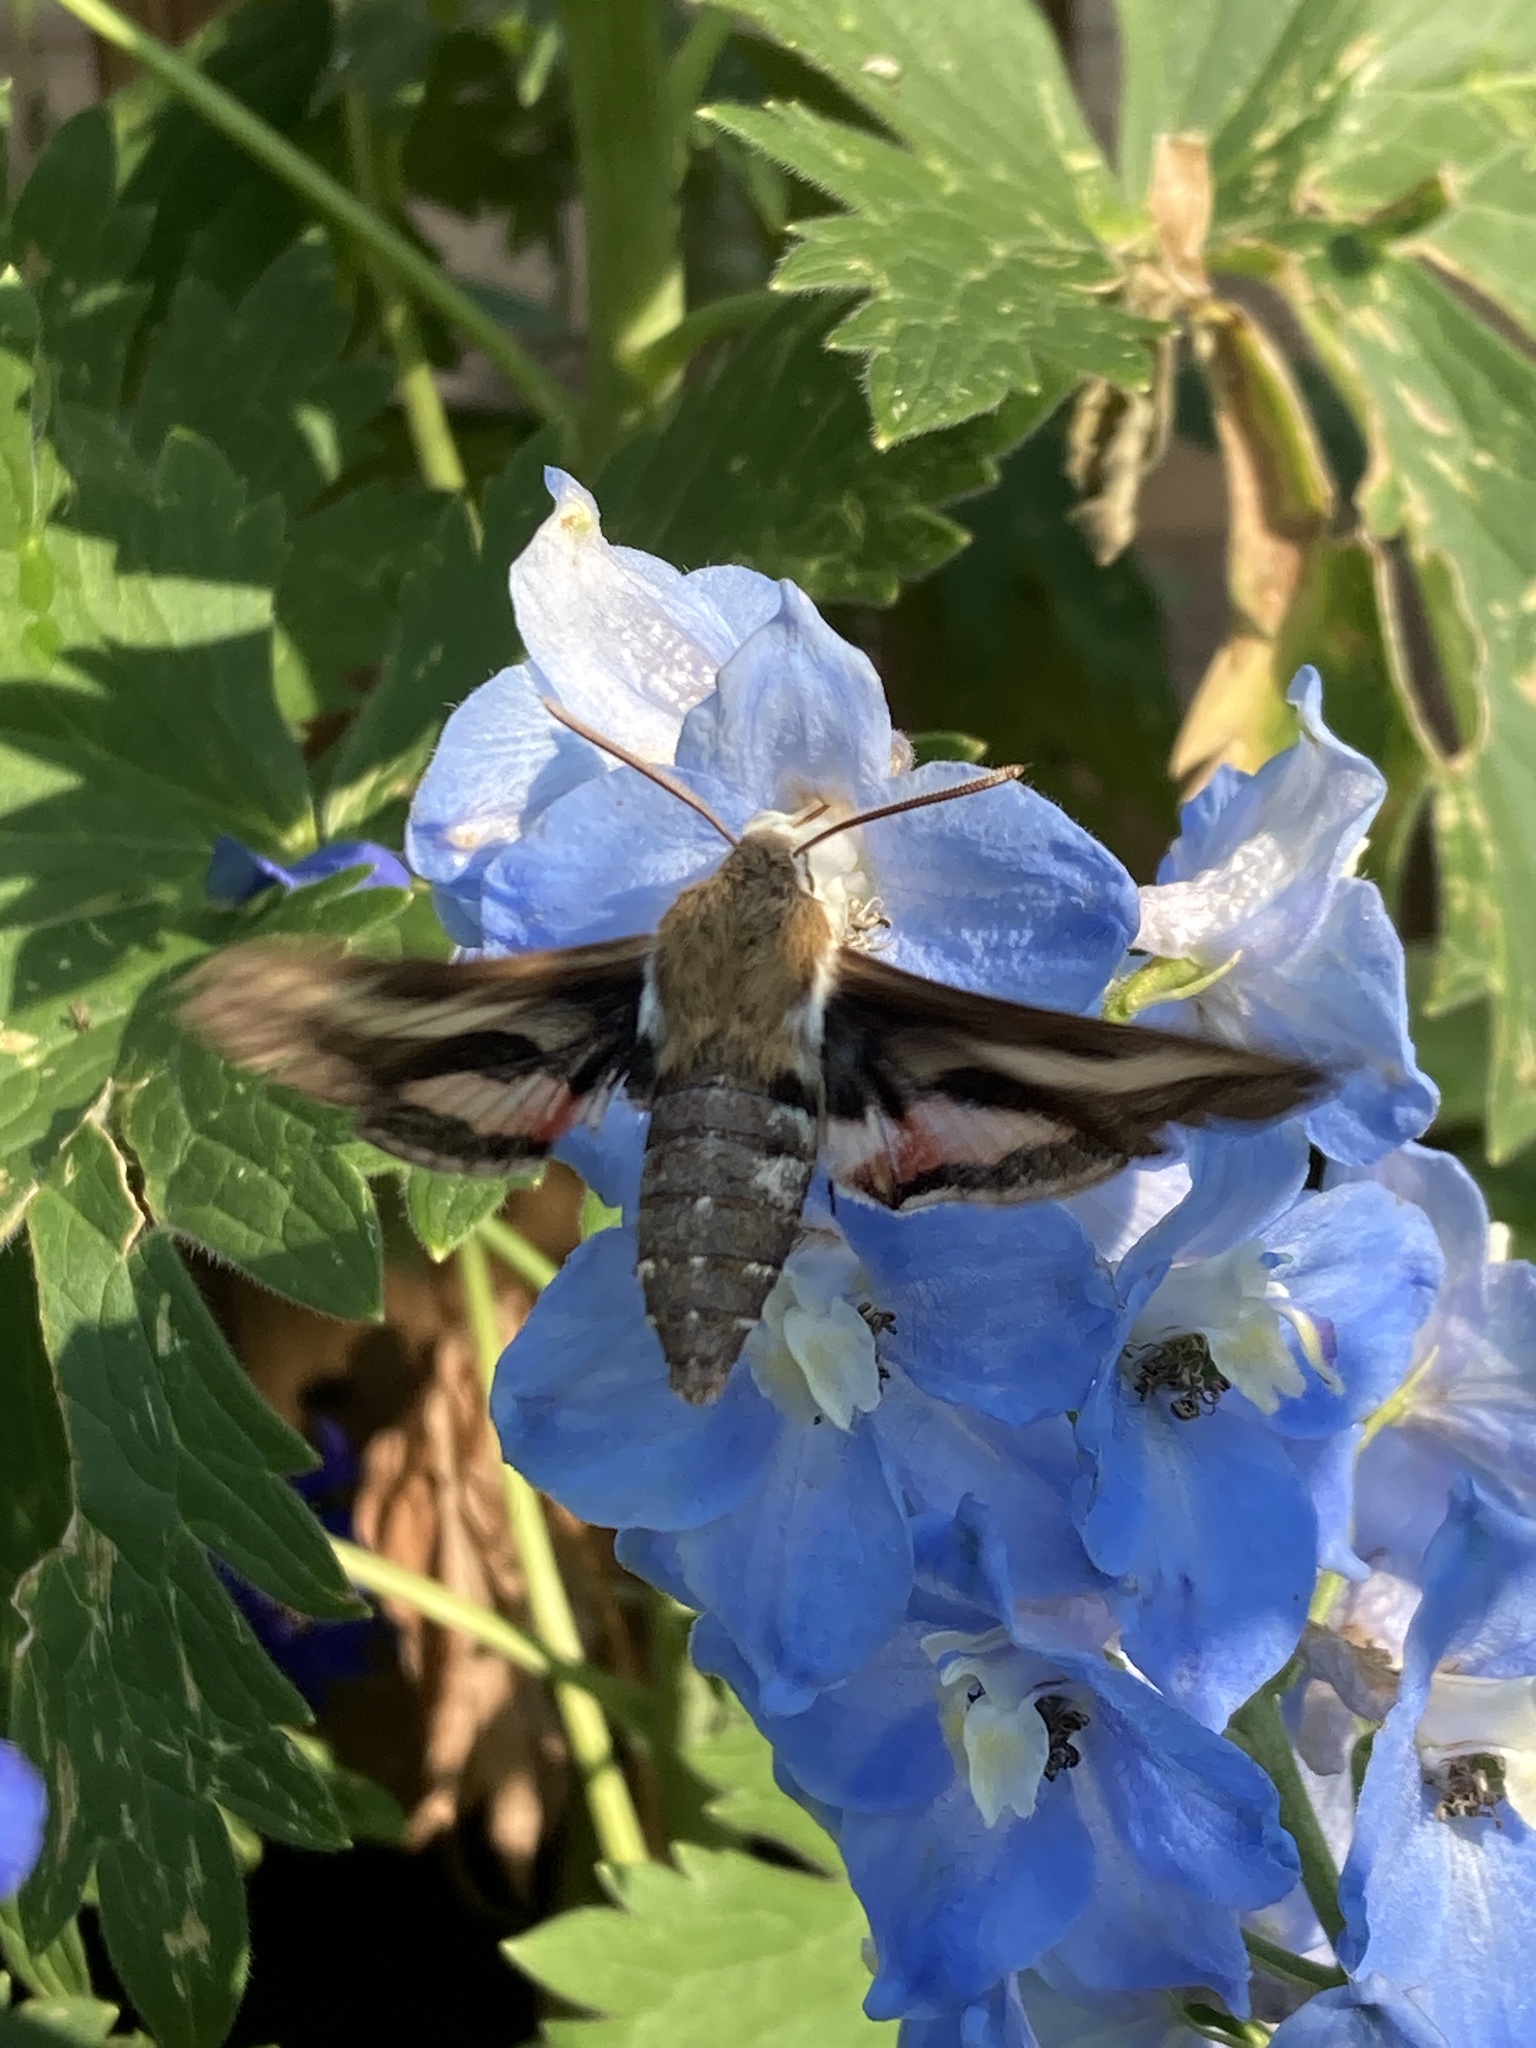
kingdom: Animalia
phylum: Arthropoda
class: Insecta
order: Lepidoptera
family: Sphingidae
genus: Hyles
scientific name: Hyles gallii
